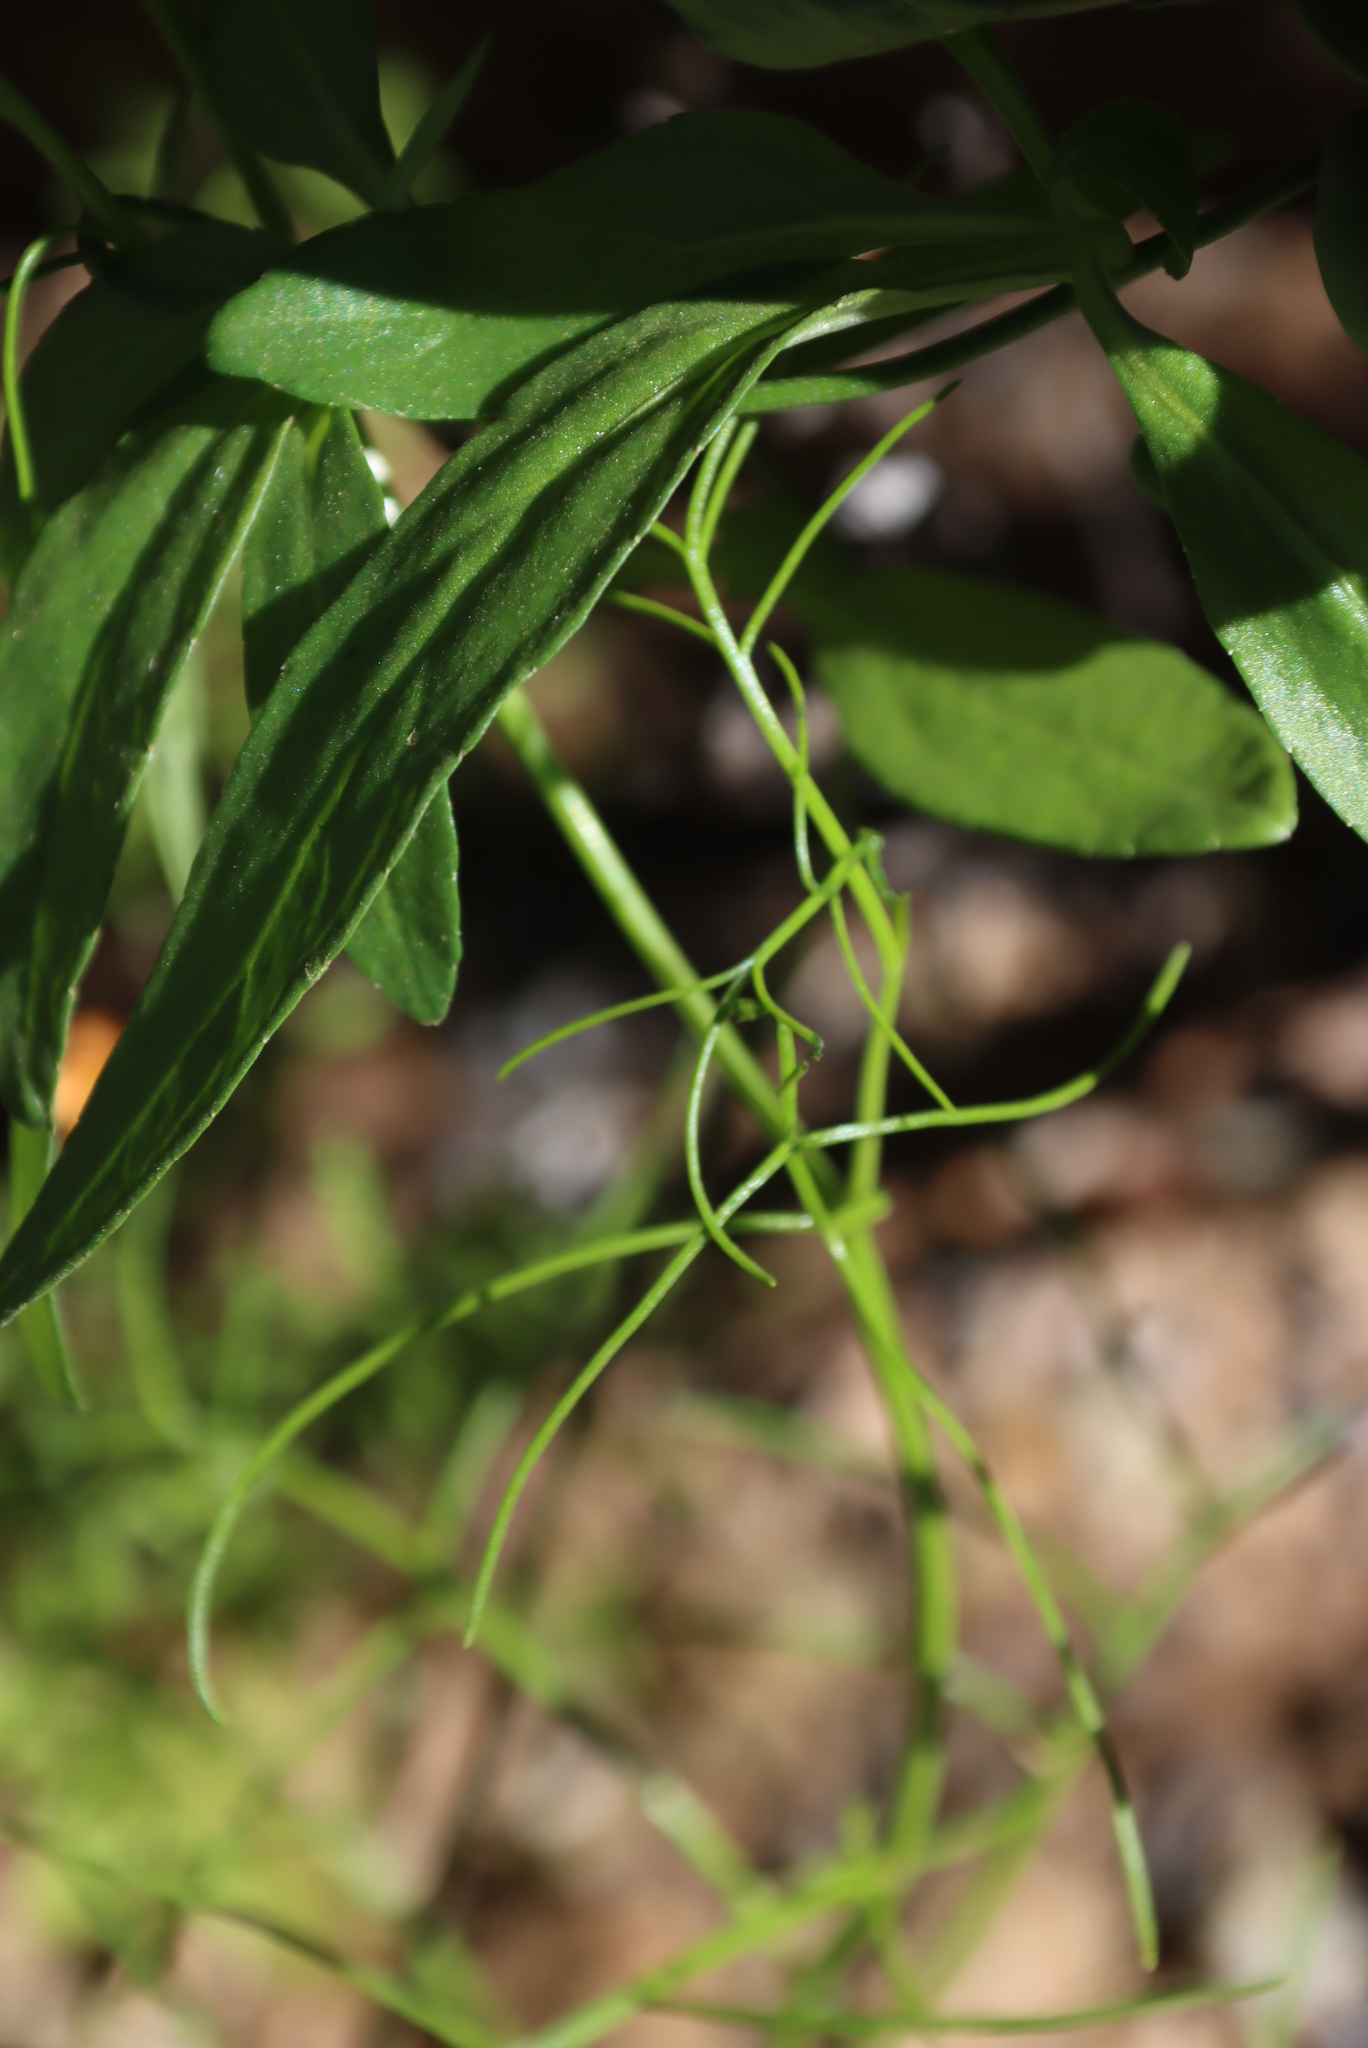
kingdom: Plantae
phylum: Tracheophyta
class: Magnoliopsida
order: Brassicales
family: Brassicaceae
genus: Heliophila
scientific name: Heliophila thunbergii
